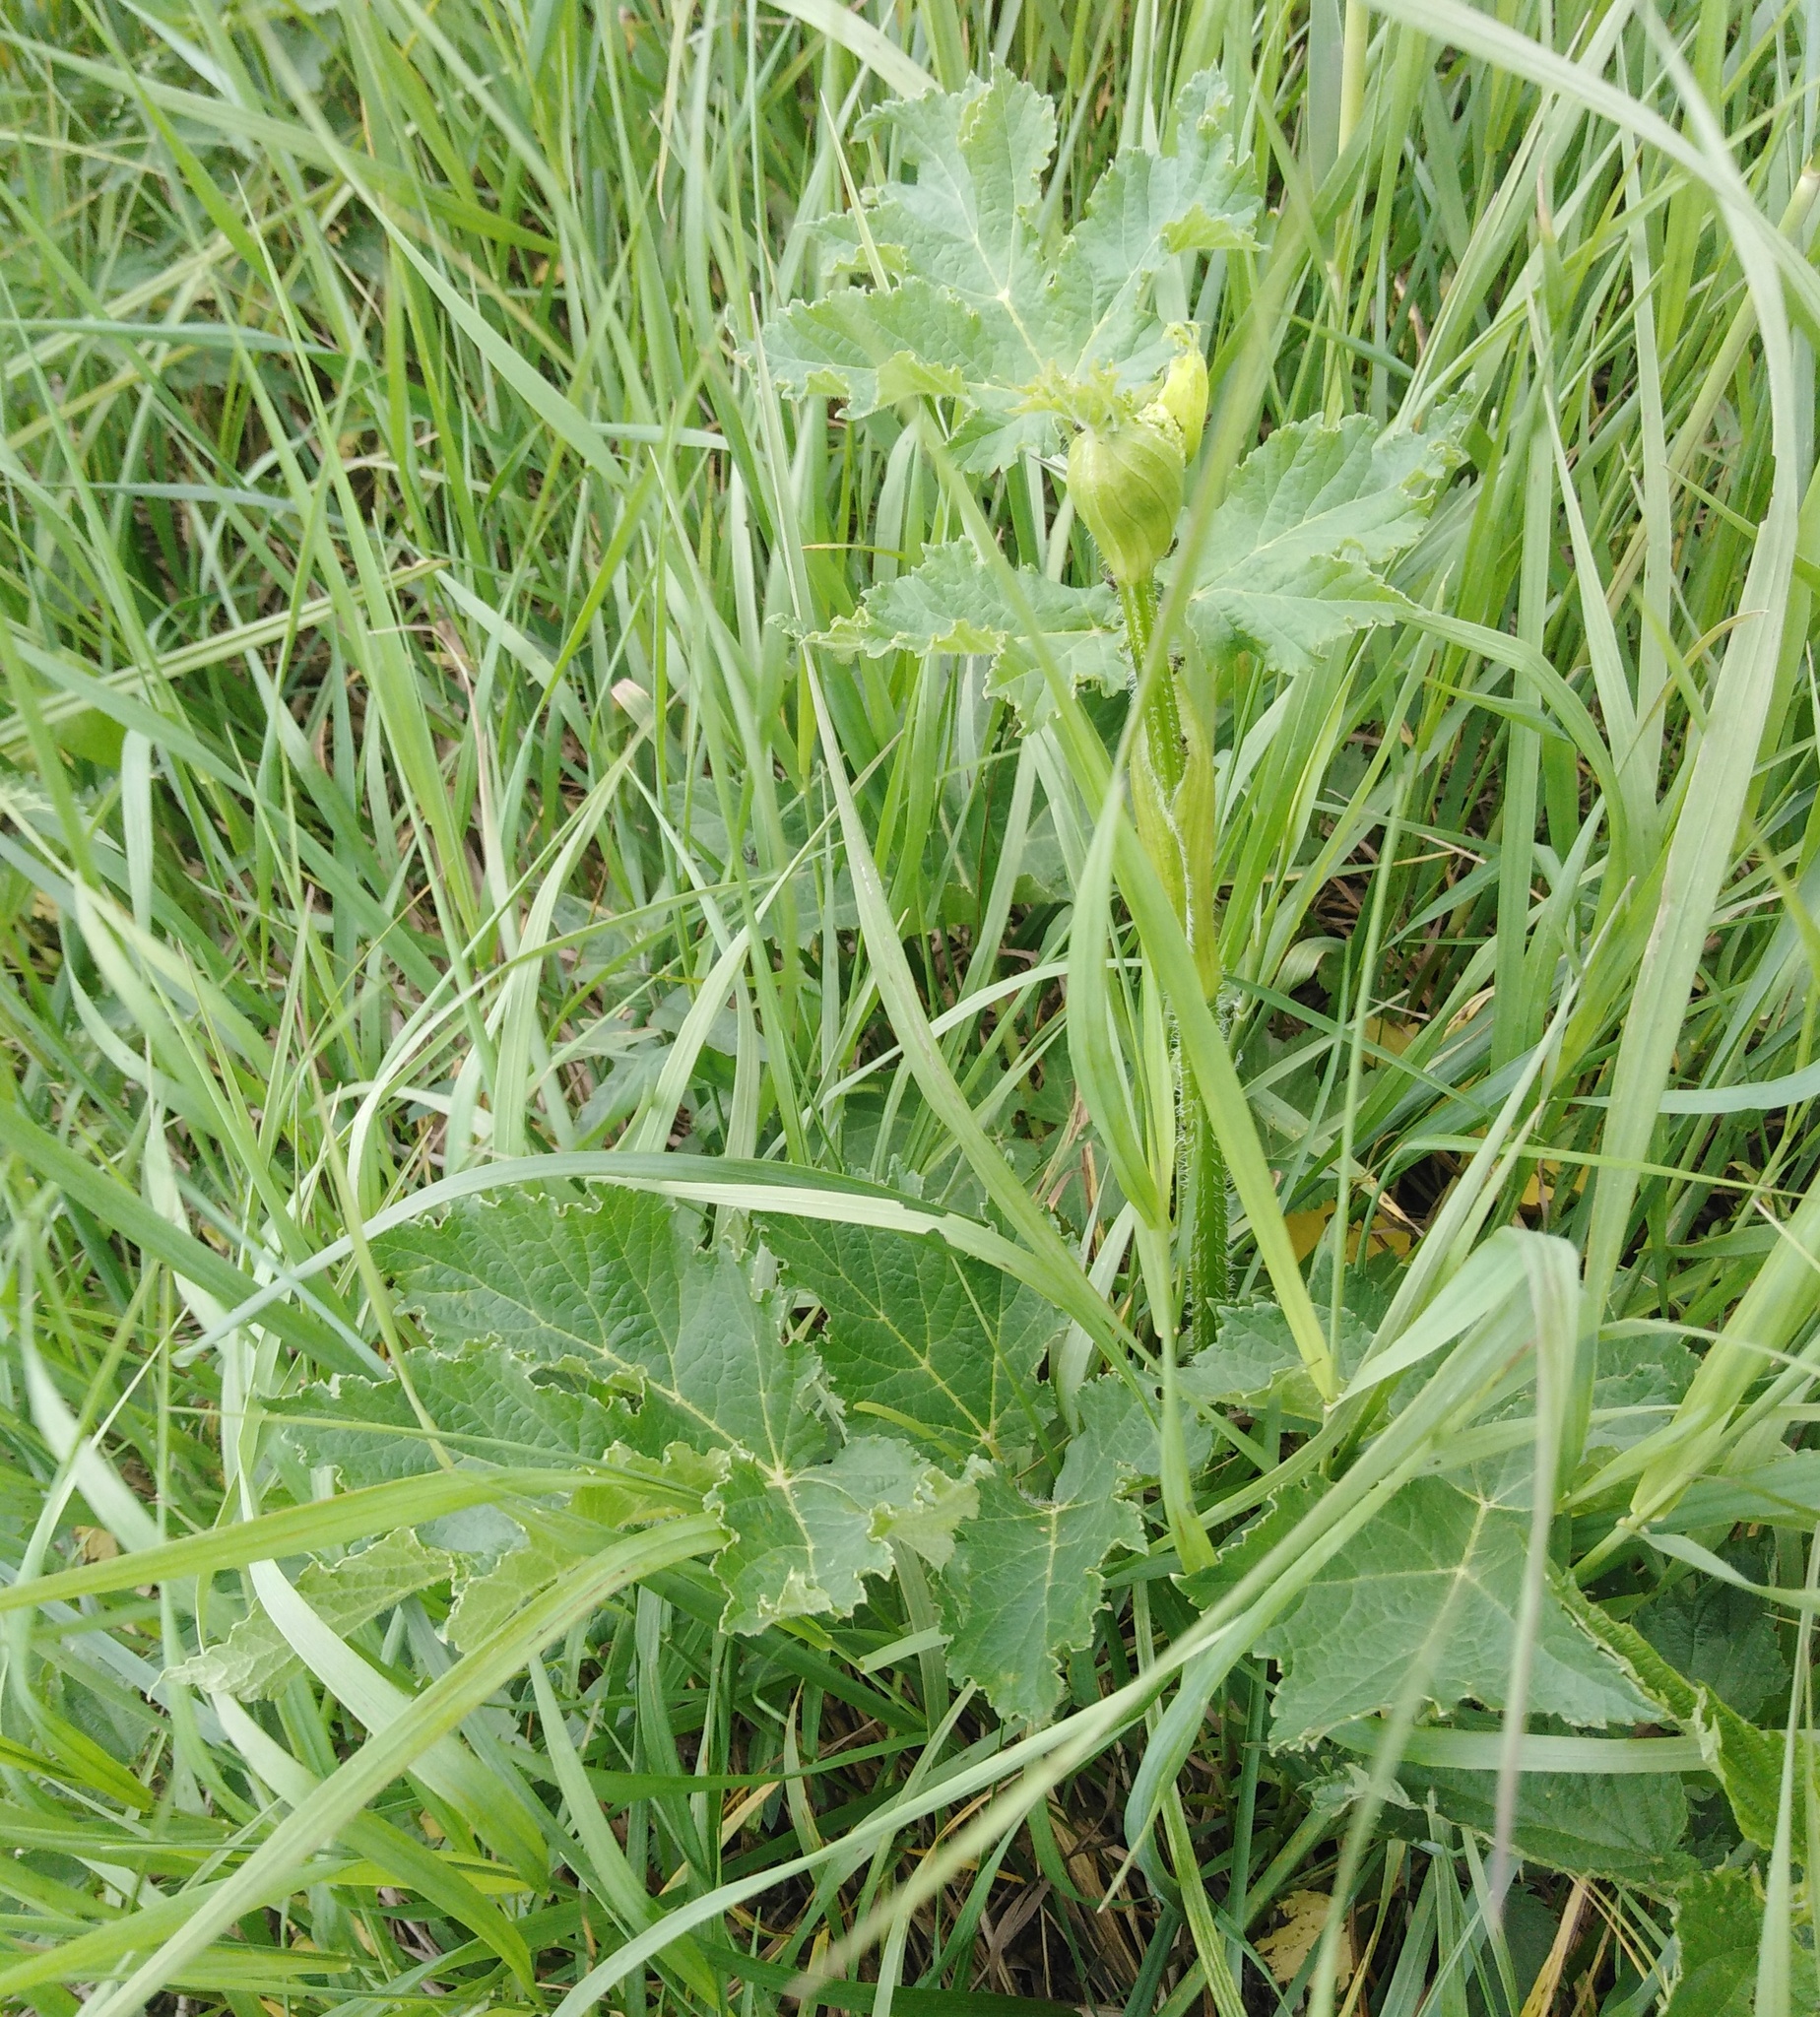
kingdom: Plantae
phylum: Tracheophyta
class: Magnoliopsida
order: Apiales
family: Apiaceae
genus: Heracleum
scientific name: Heracleum sphondylium
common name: Hogweed
